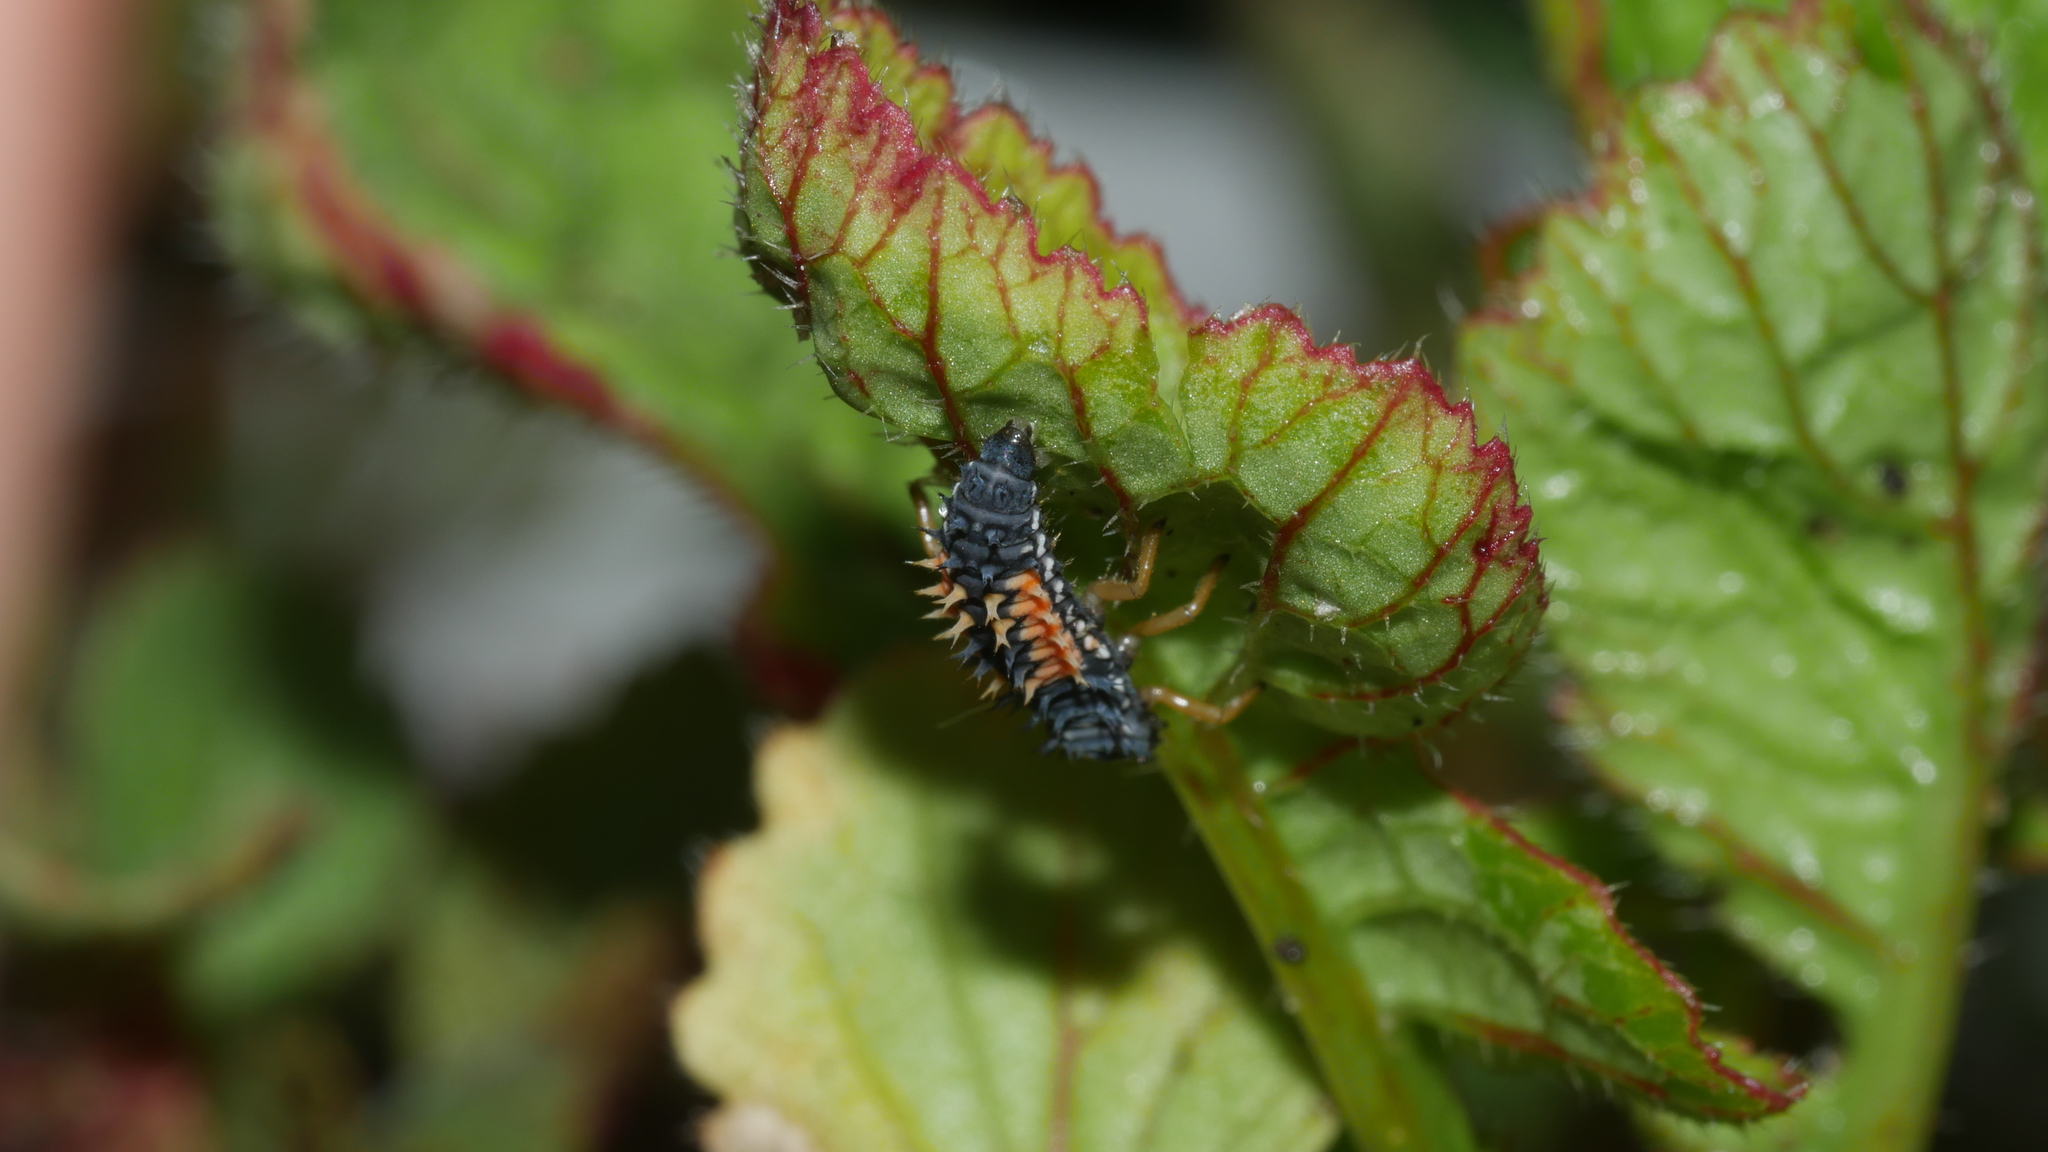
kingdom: Animalia
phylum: Arthropoda
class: Insecta
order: Coleoptera
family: Coccinellidae
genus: Harmonia
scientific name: Harmonia axyridis
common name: Harlequin ladybird
